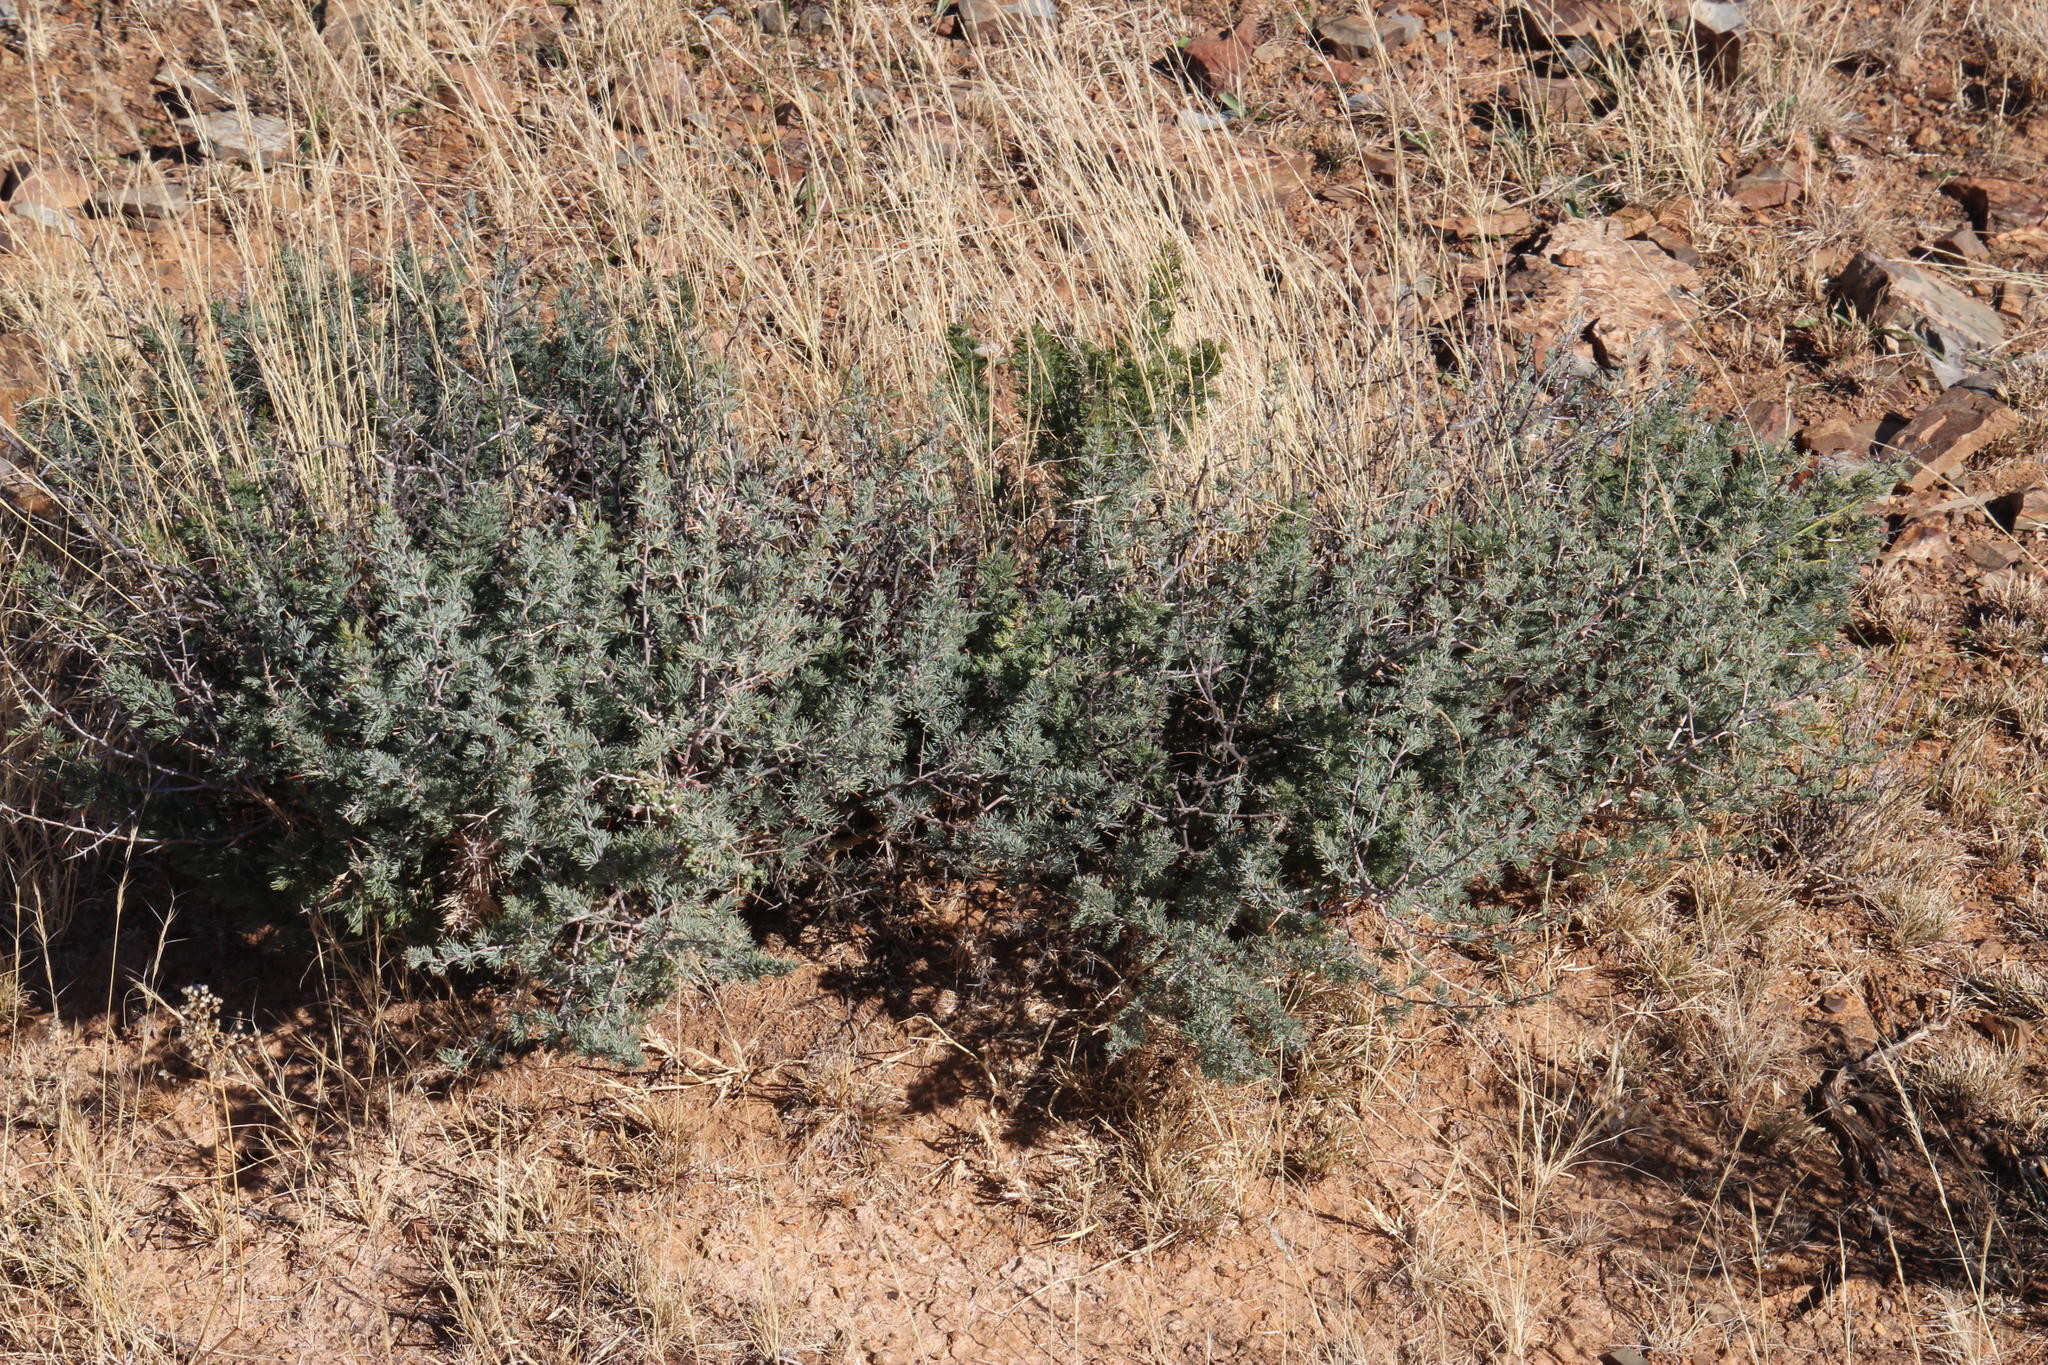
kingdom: Plantae
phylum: Tracheophyta
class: Liliopsida
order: Asparagales
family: Asparagaceae
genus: Asparagus
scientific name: Asparagus glaucus
